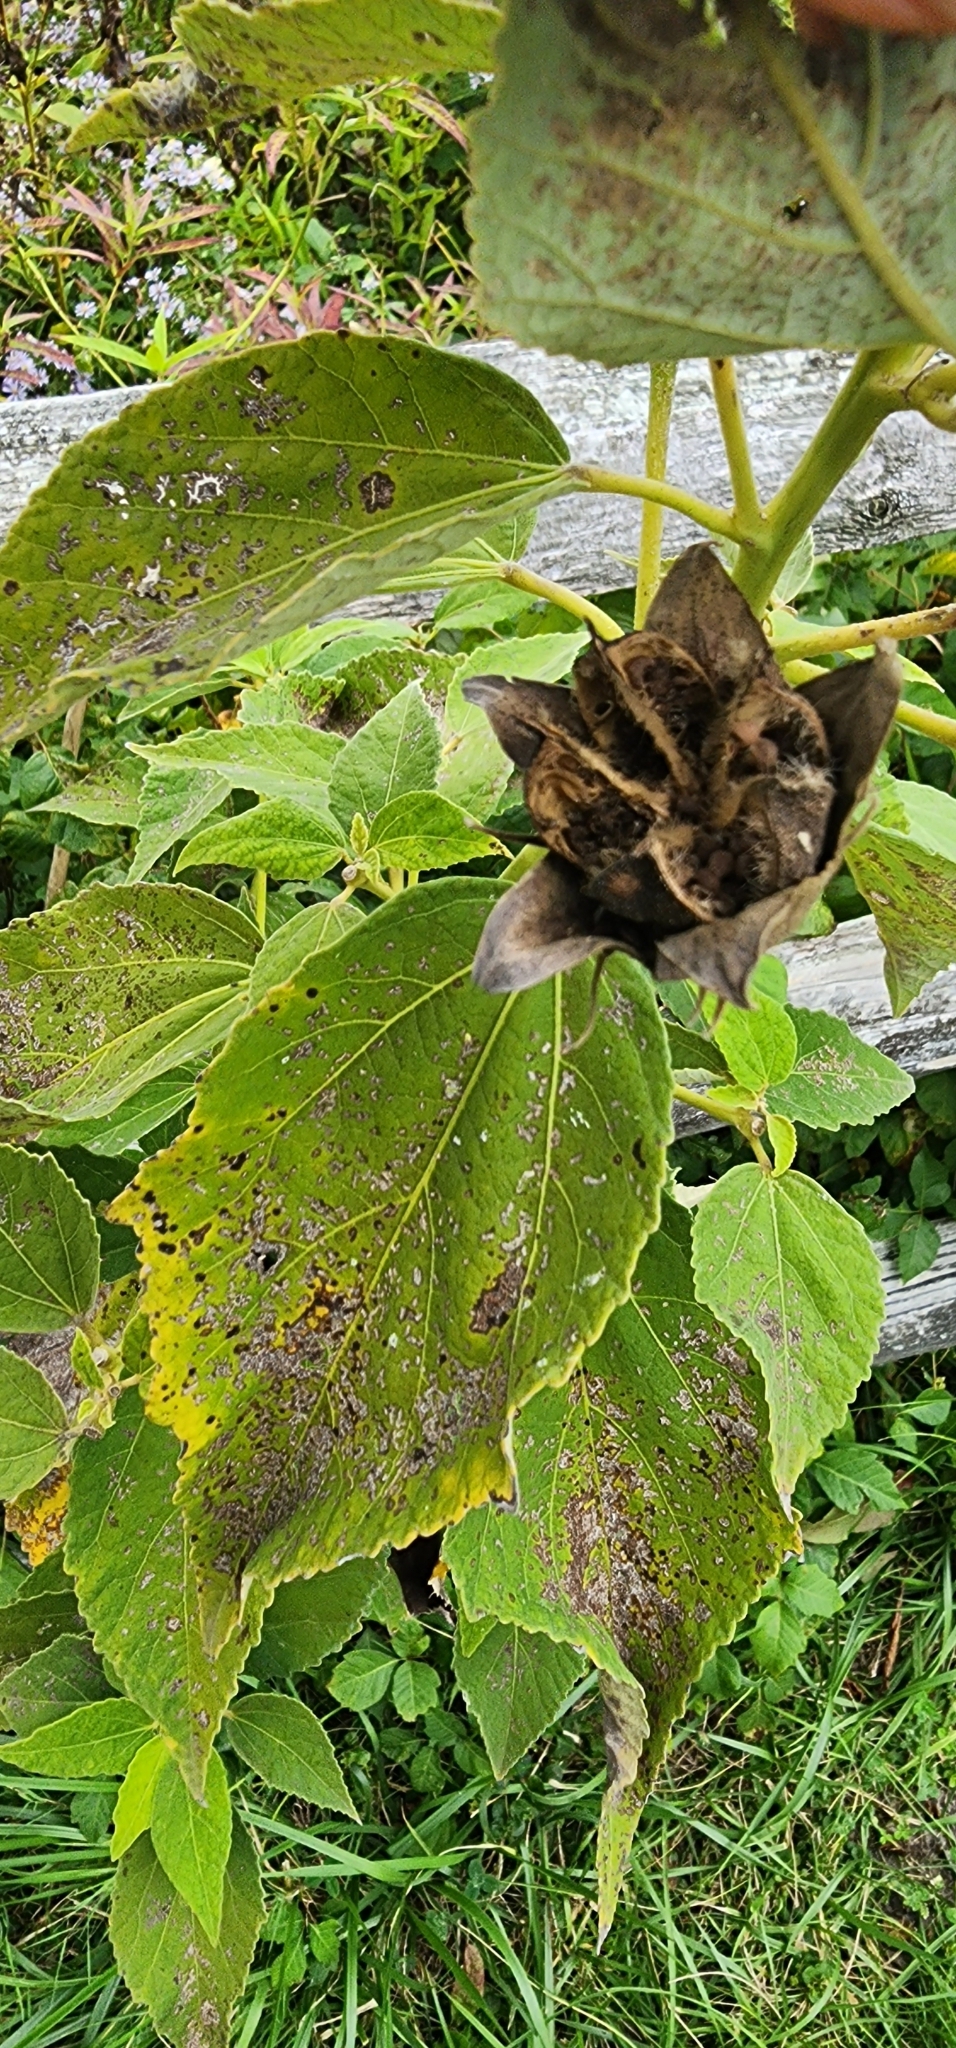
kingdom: Plantae
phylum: Tracheophyta
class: Magnoliopsida
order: Malvales
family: Malvaceae
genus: Hibiscus
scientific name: Hibiscus moscheutos
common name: Common rose-mallow
